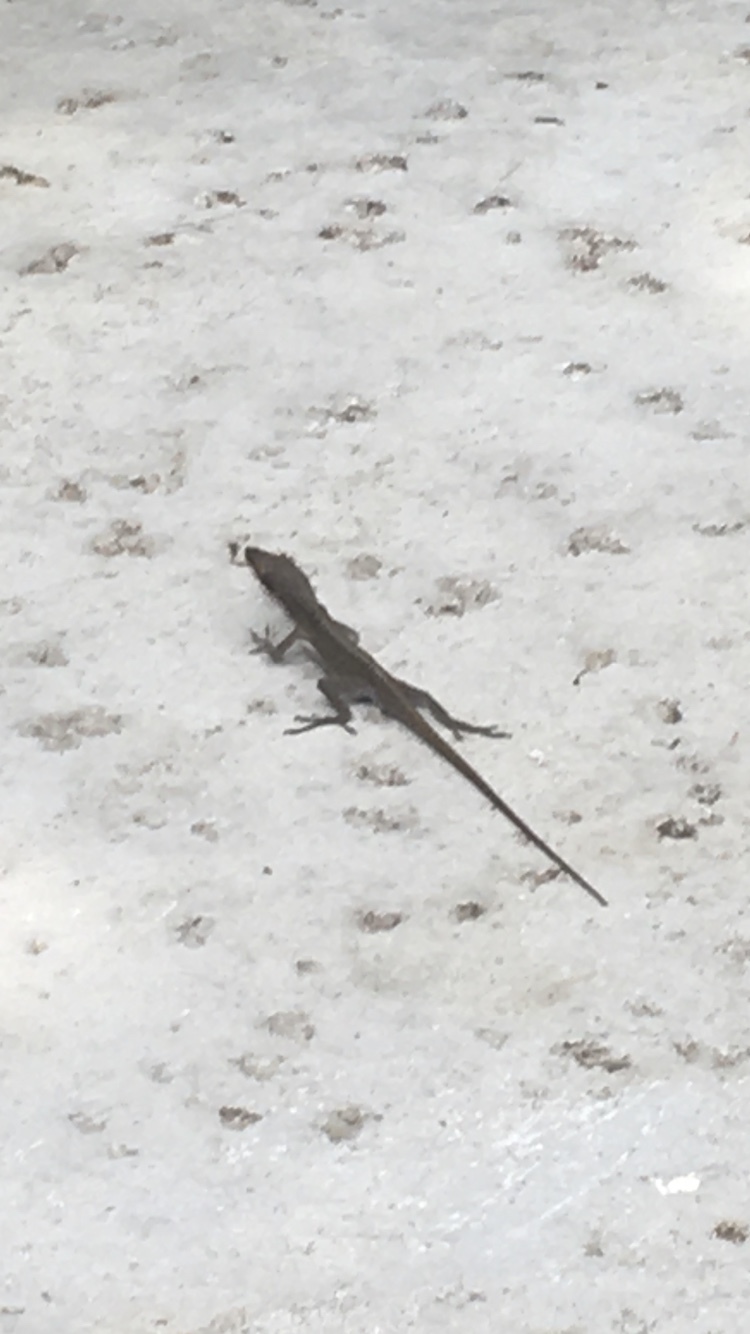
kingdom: Animalia
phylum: Chordata
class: Squamata
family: Dactyloidae
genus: Anolis
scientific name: Anolis carolinensis
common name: Green anole
